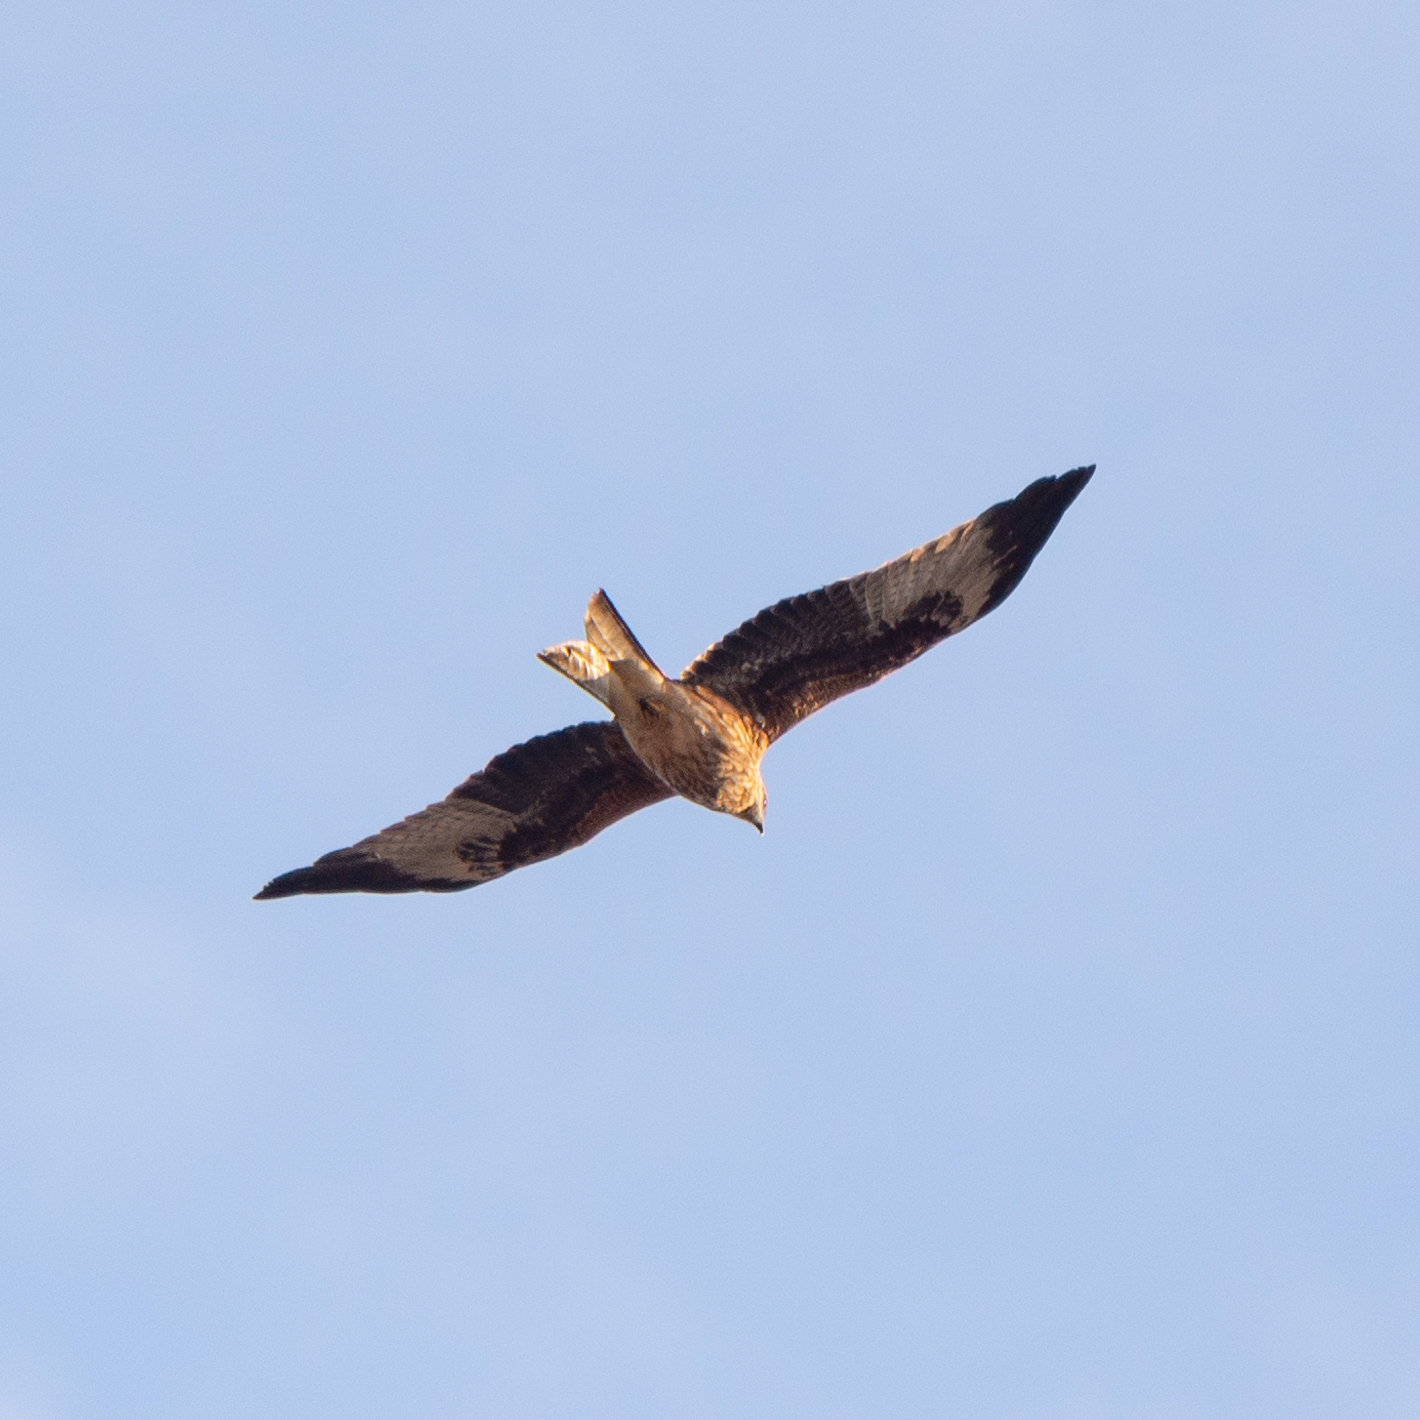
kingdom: Animalia
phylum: Chordata
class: Aves
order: Accipitriformes
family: Accipitridae
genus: Milvus
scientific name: Milvus milvus
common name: Red kite
